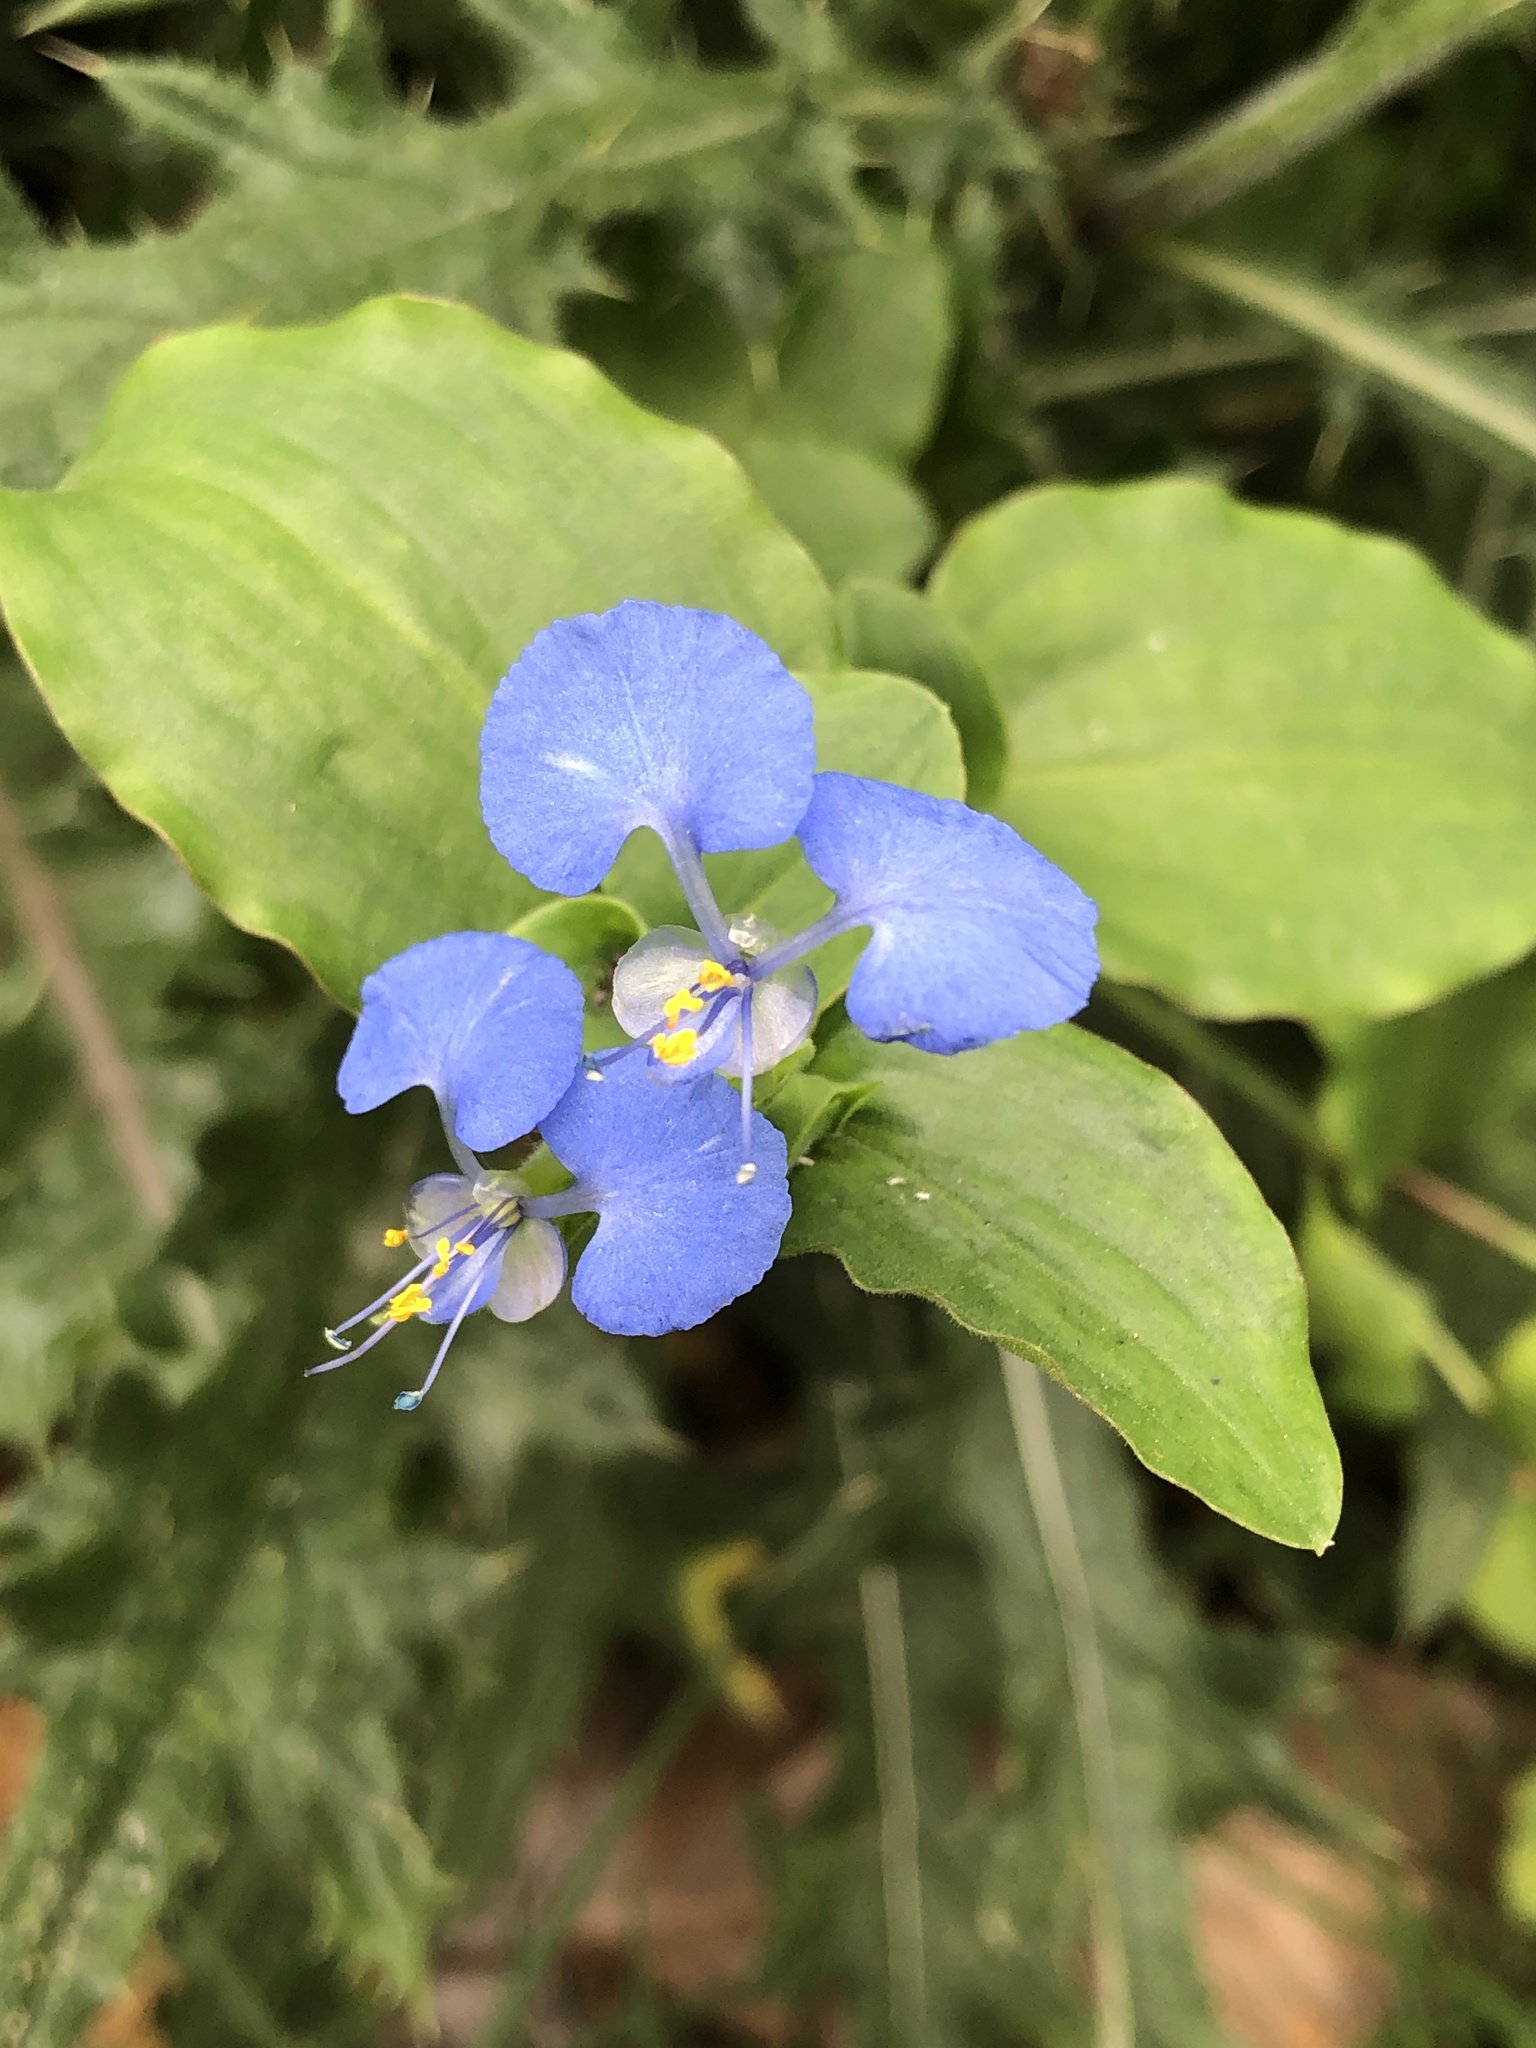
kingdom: Plantae
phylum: Tracheophyta
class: Liliopsida
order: Commelinales
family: Commelinaceae
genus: Commelina
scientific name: Commelina benghalensis
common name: Jio
